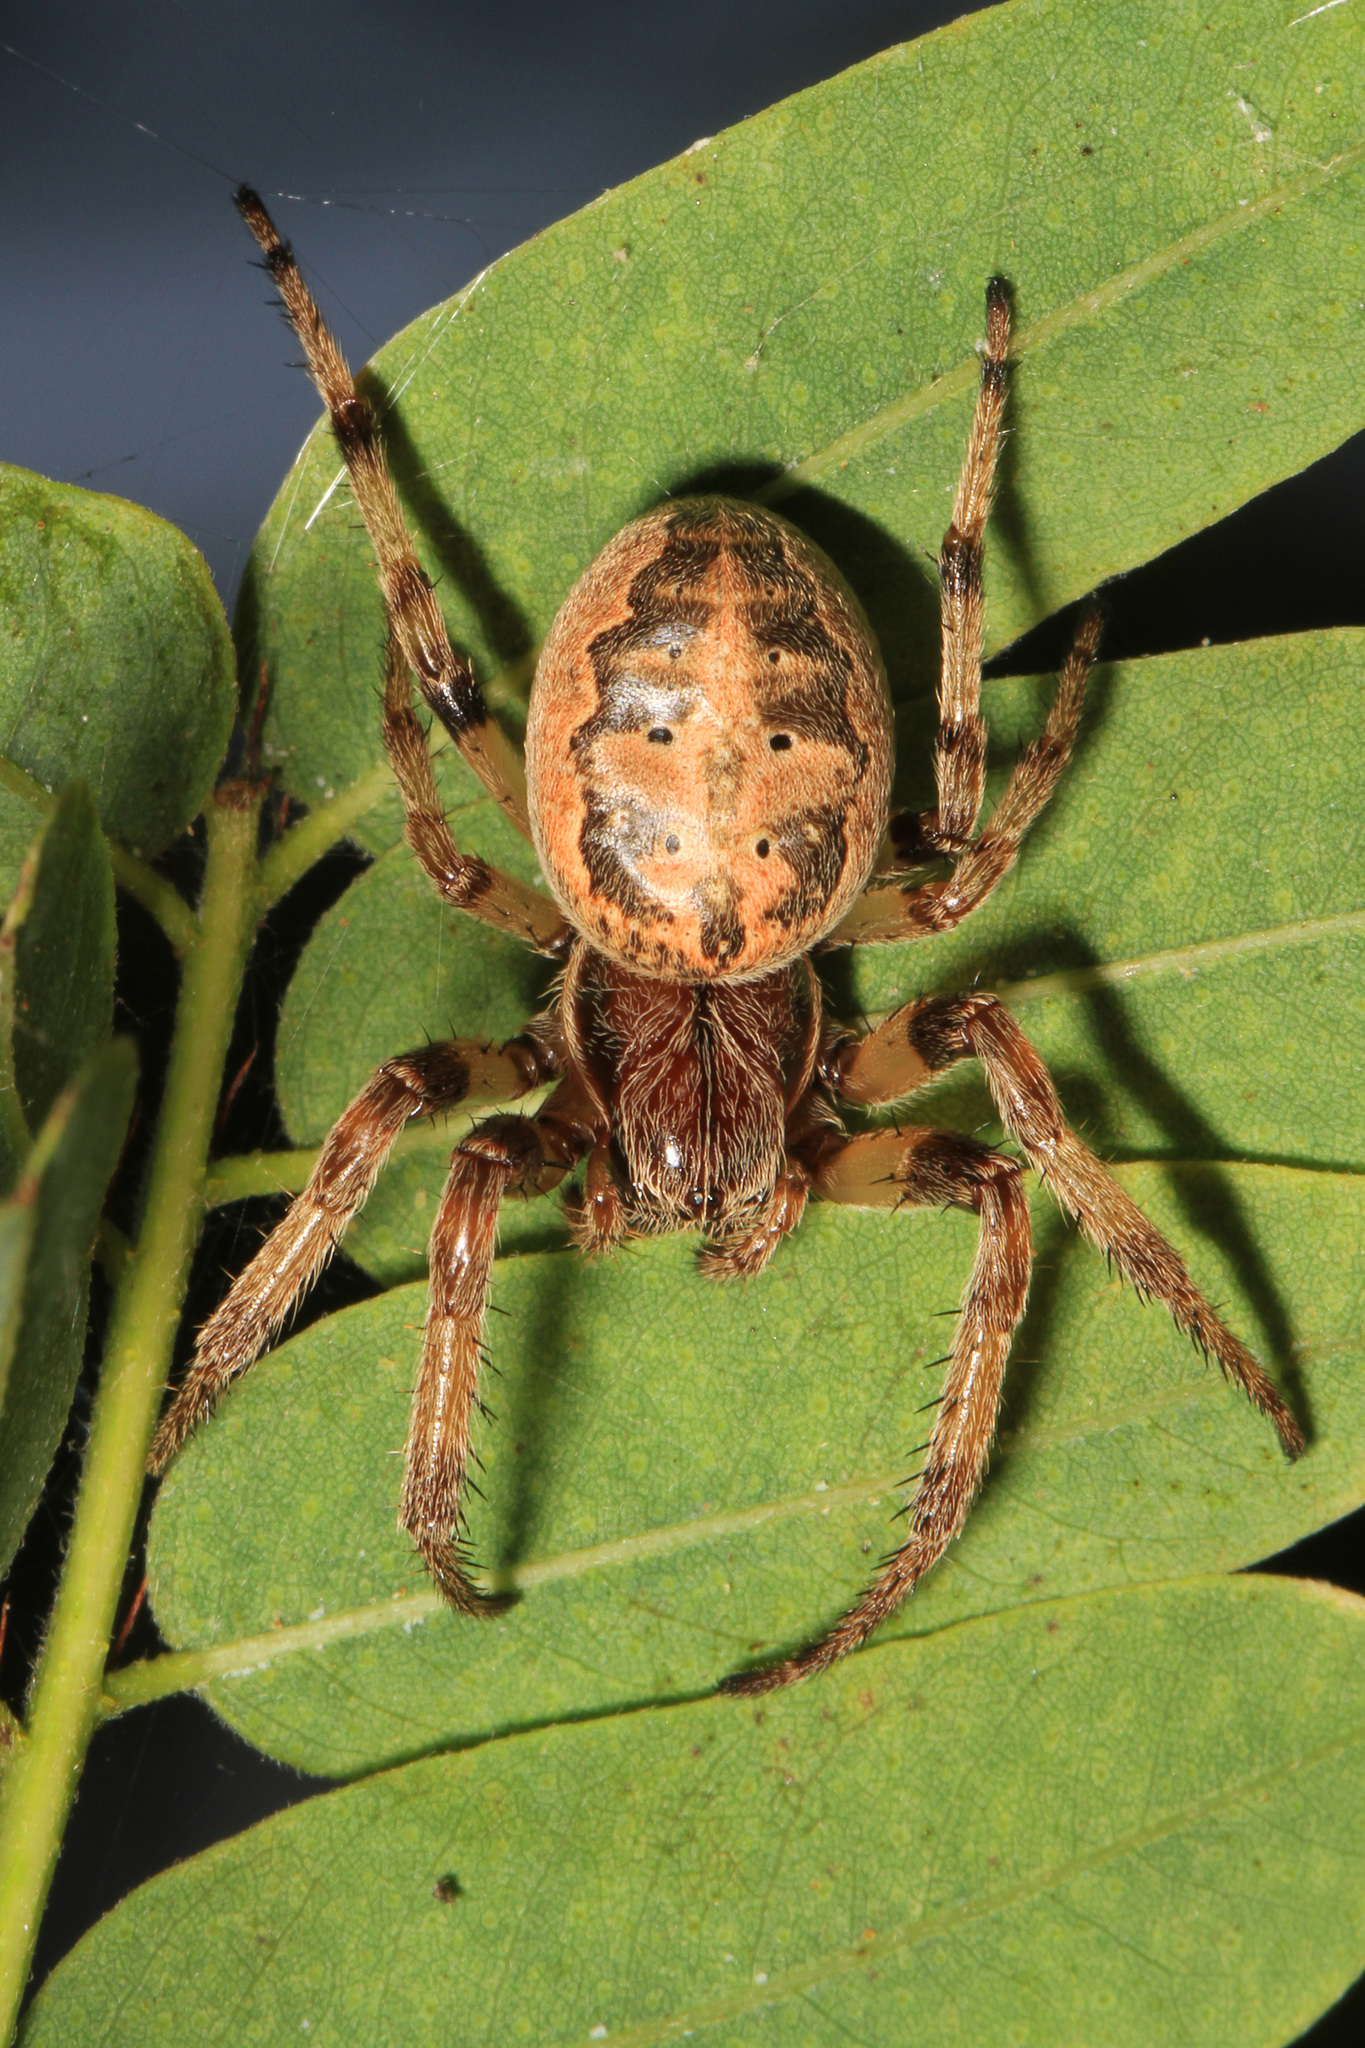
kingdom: Animalia
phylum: Arthropoda
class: Arachnida
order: Araneae
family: Araneidae
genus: Larinioides
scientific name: Larinioides cornutus
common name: Furrow orbweaver
